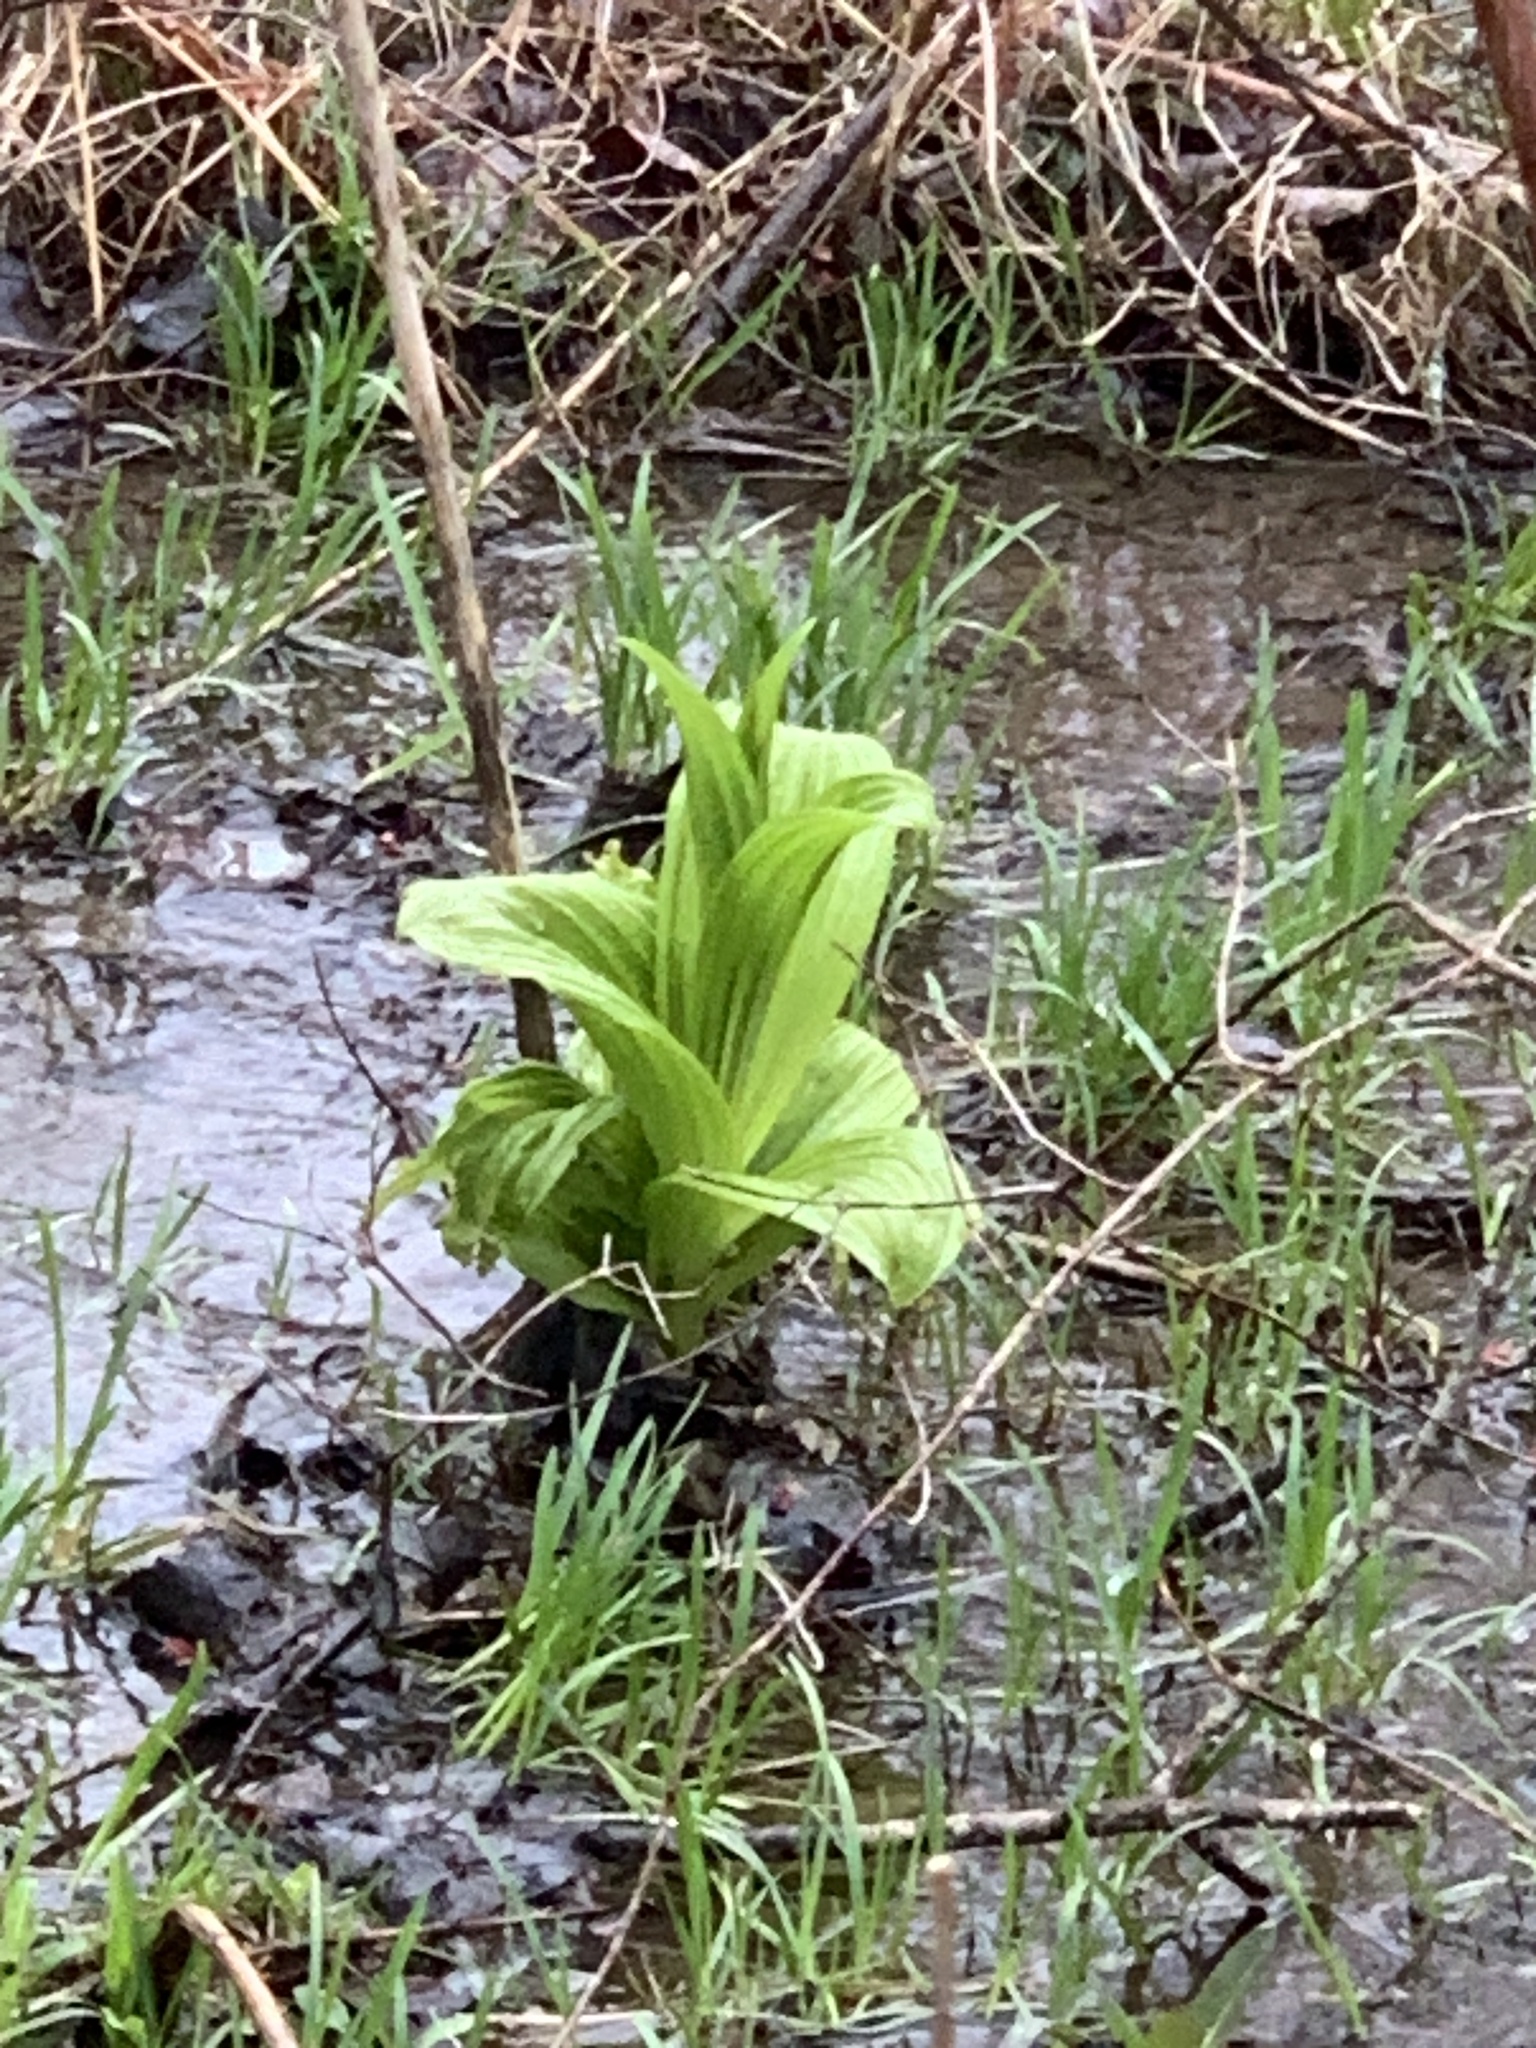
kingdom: Plantae
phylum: Tracheophyta
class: Liliopsida
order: Liliales
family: Melanthiaceae
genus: Veratrum
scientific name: Veratrum viride
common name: American false hellebore
